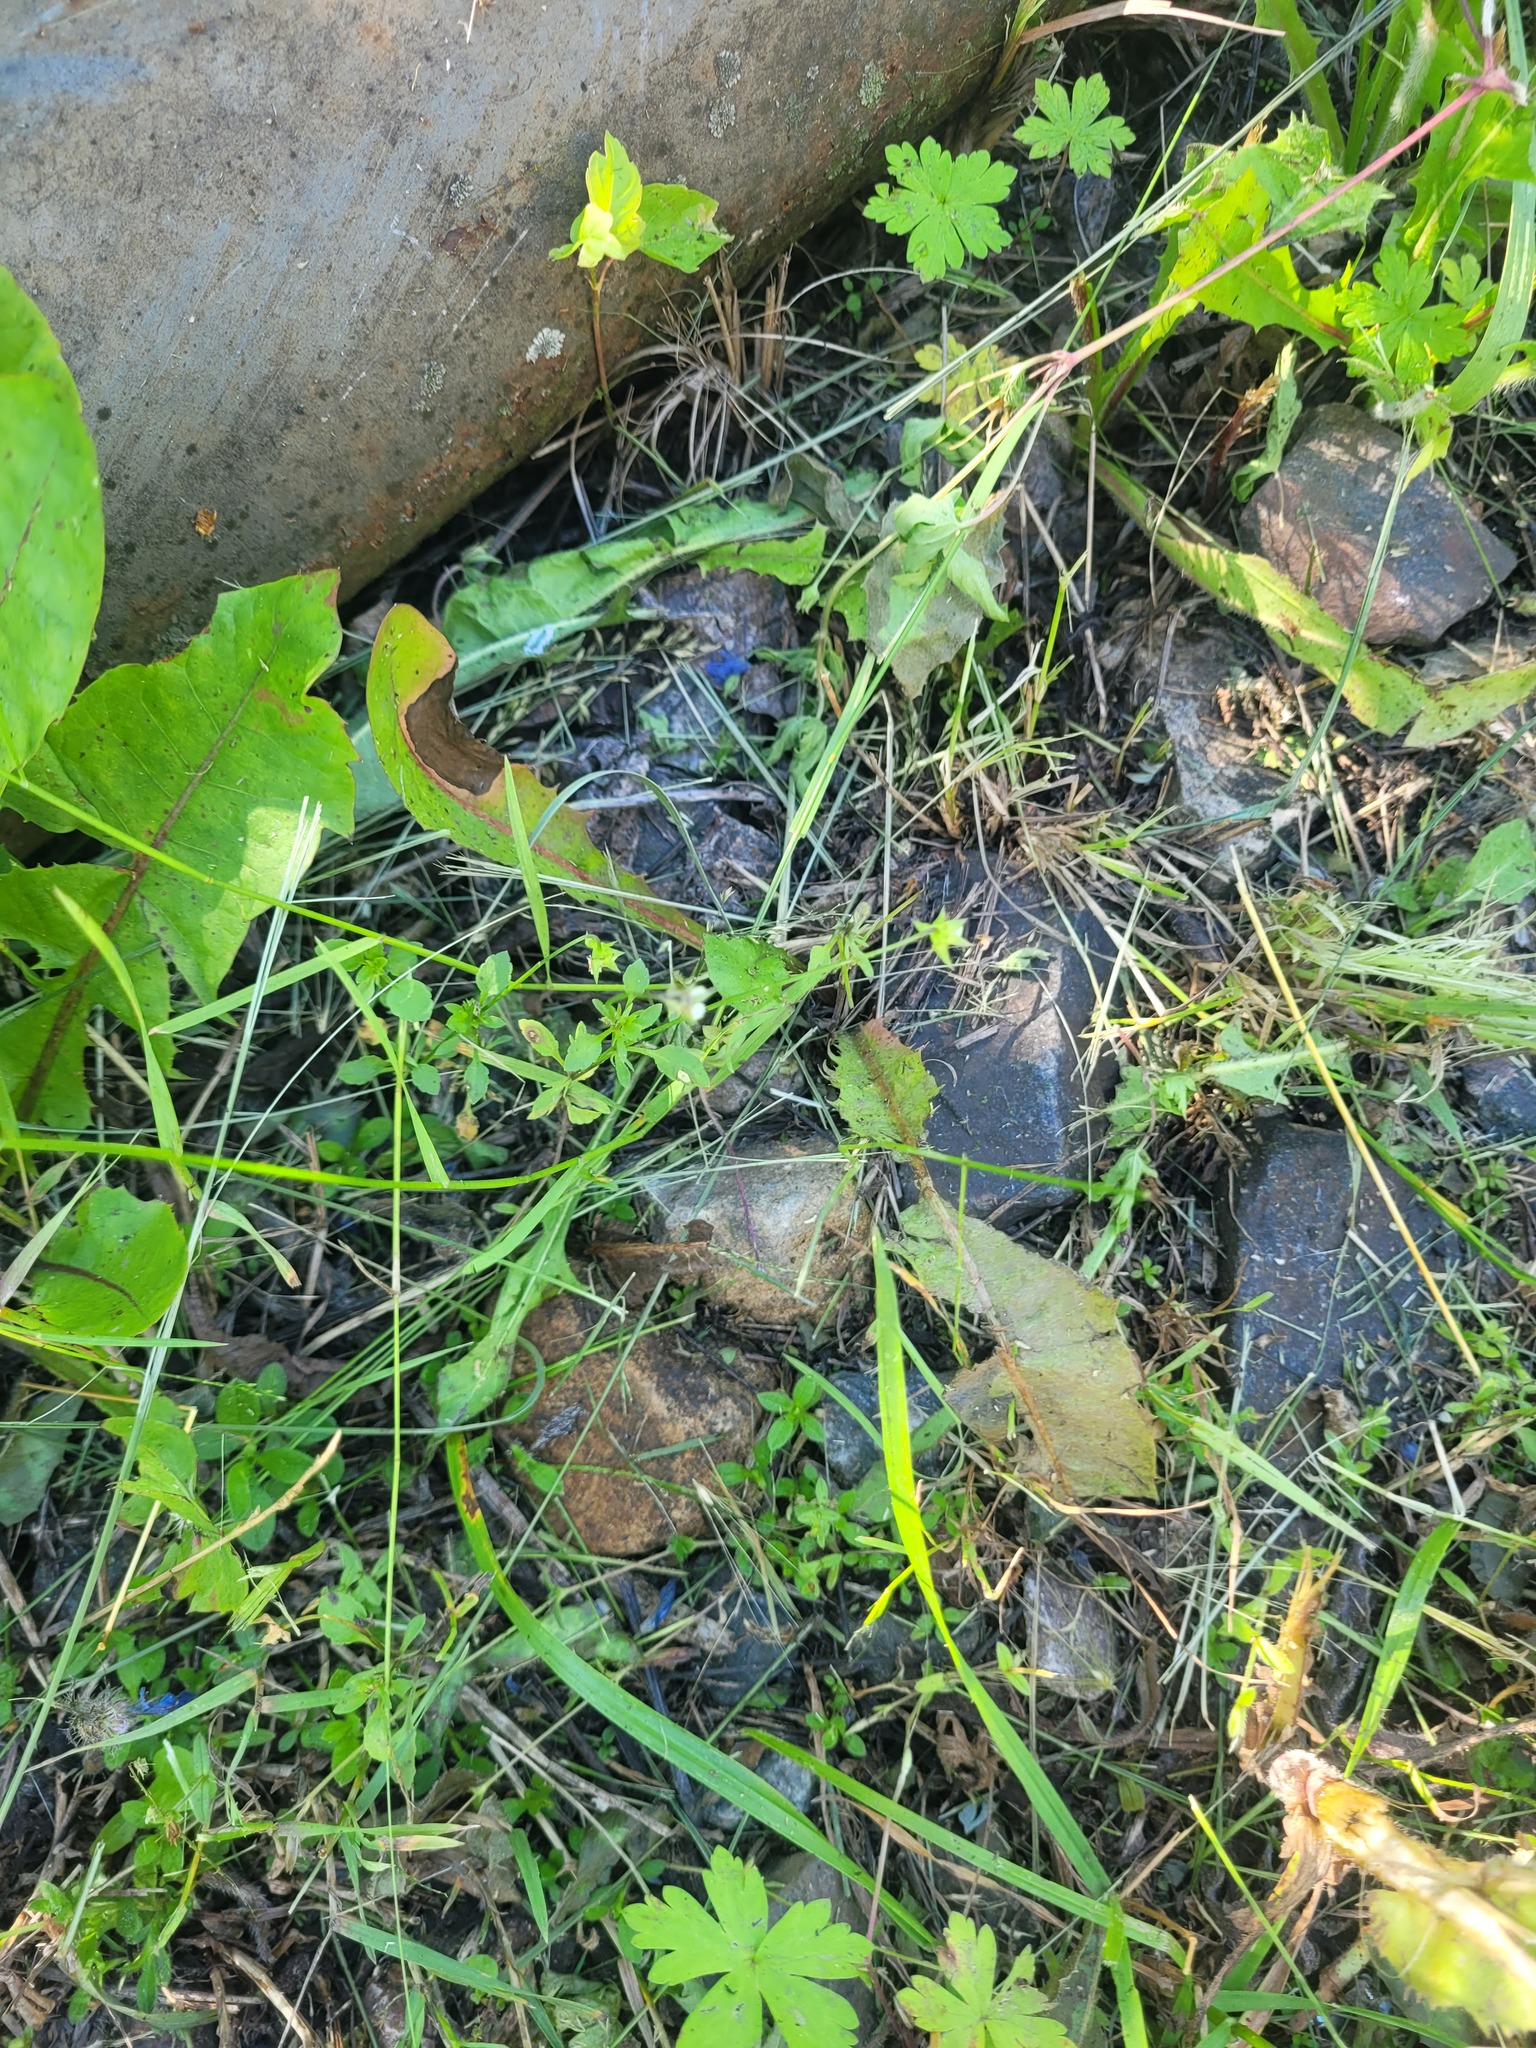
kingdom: Plantae
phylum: Tracheophyta
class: Magnoliopsida
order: Malpighiales
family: Violaceae
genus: Viola
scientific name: Viola arvensis
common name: Field pansy
